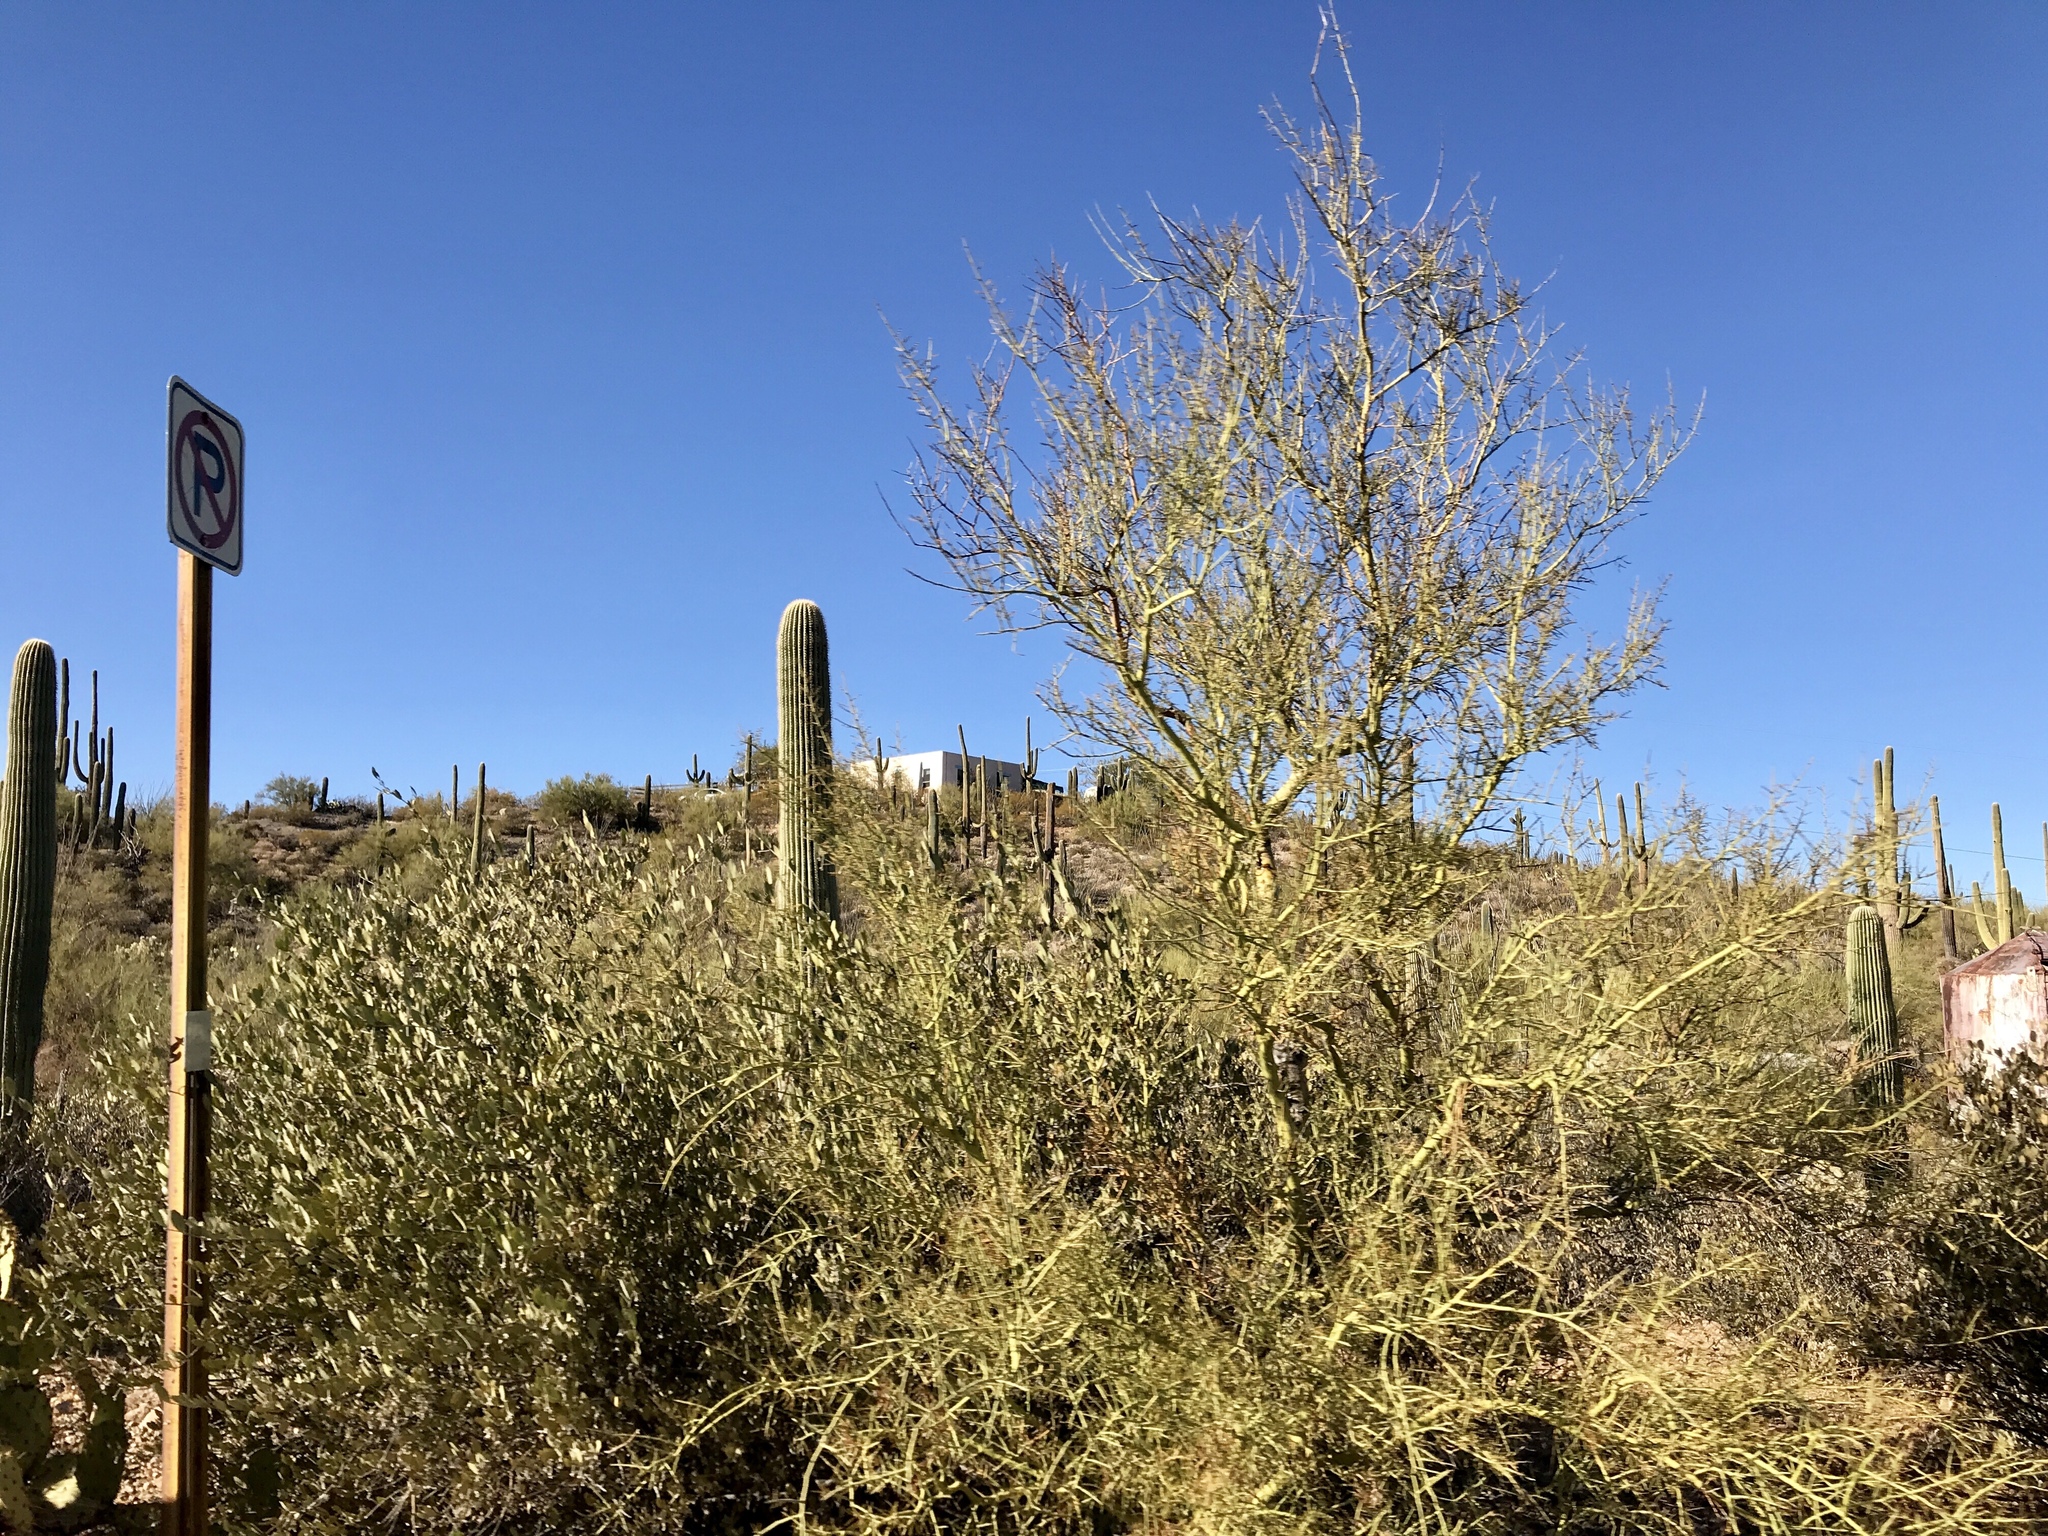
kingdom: Plantae
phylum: Tracheophyta
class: Magnoliopsida
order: Fabales
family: Fabaceae
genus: Parkinsonia
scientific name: Parkinsonia microphylla
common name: Yellow paloverde
